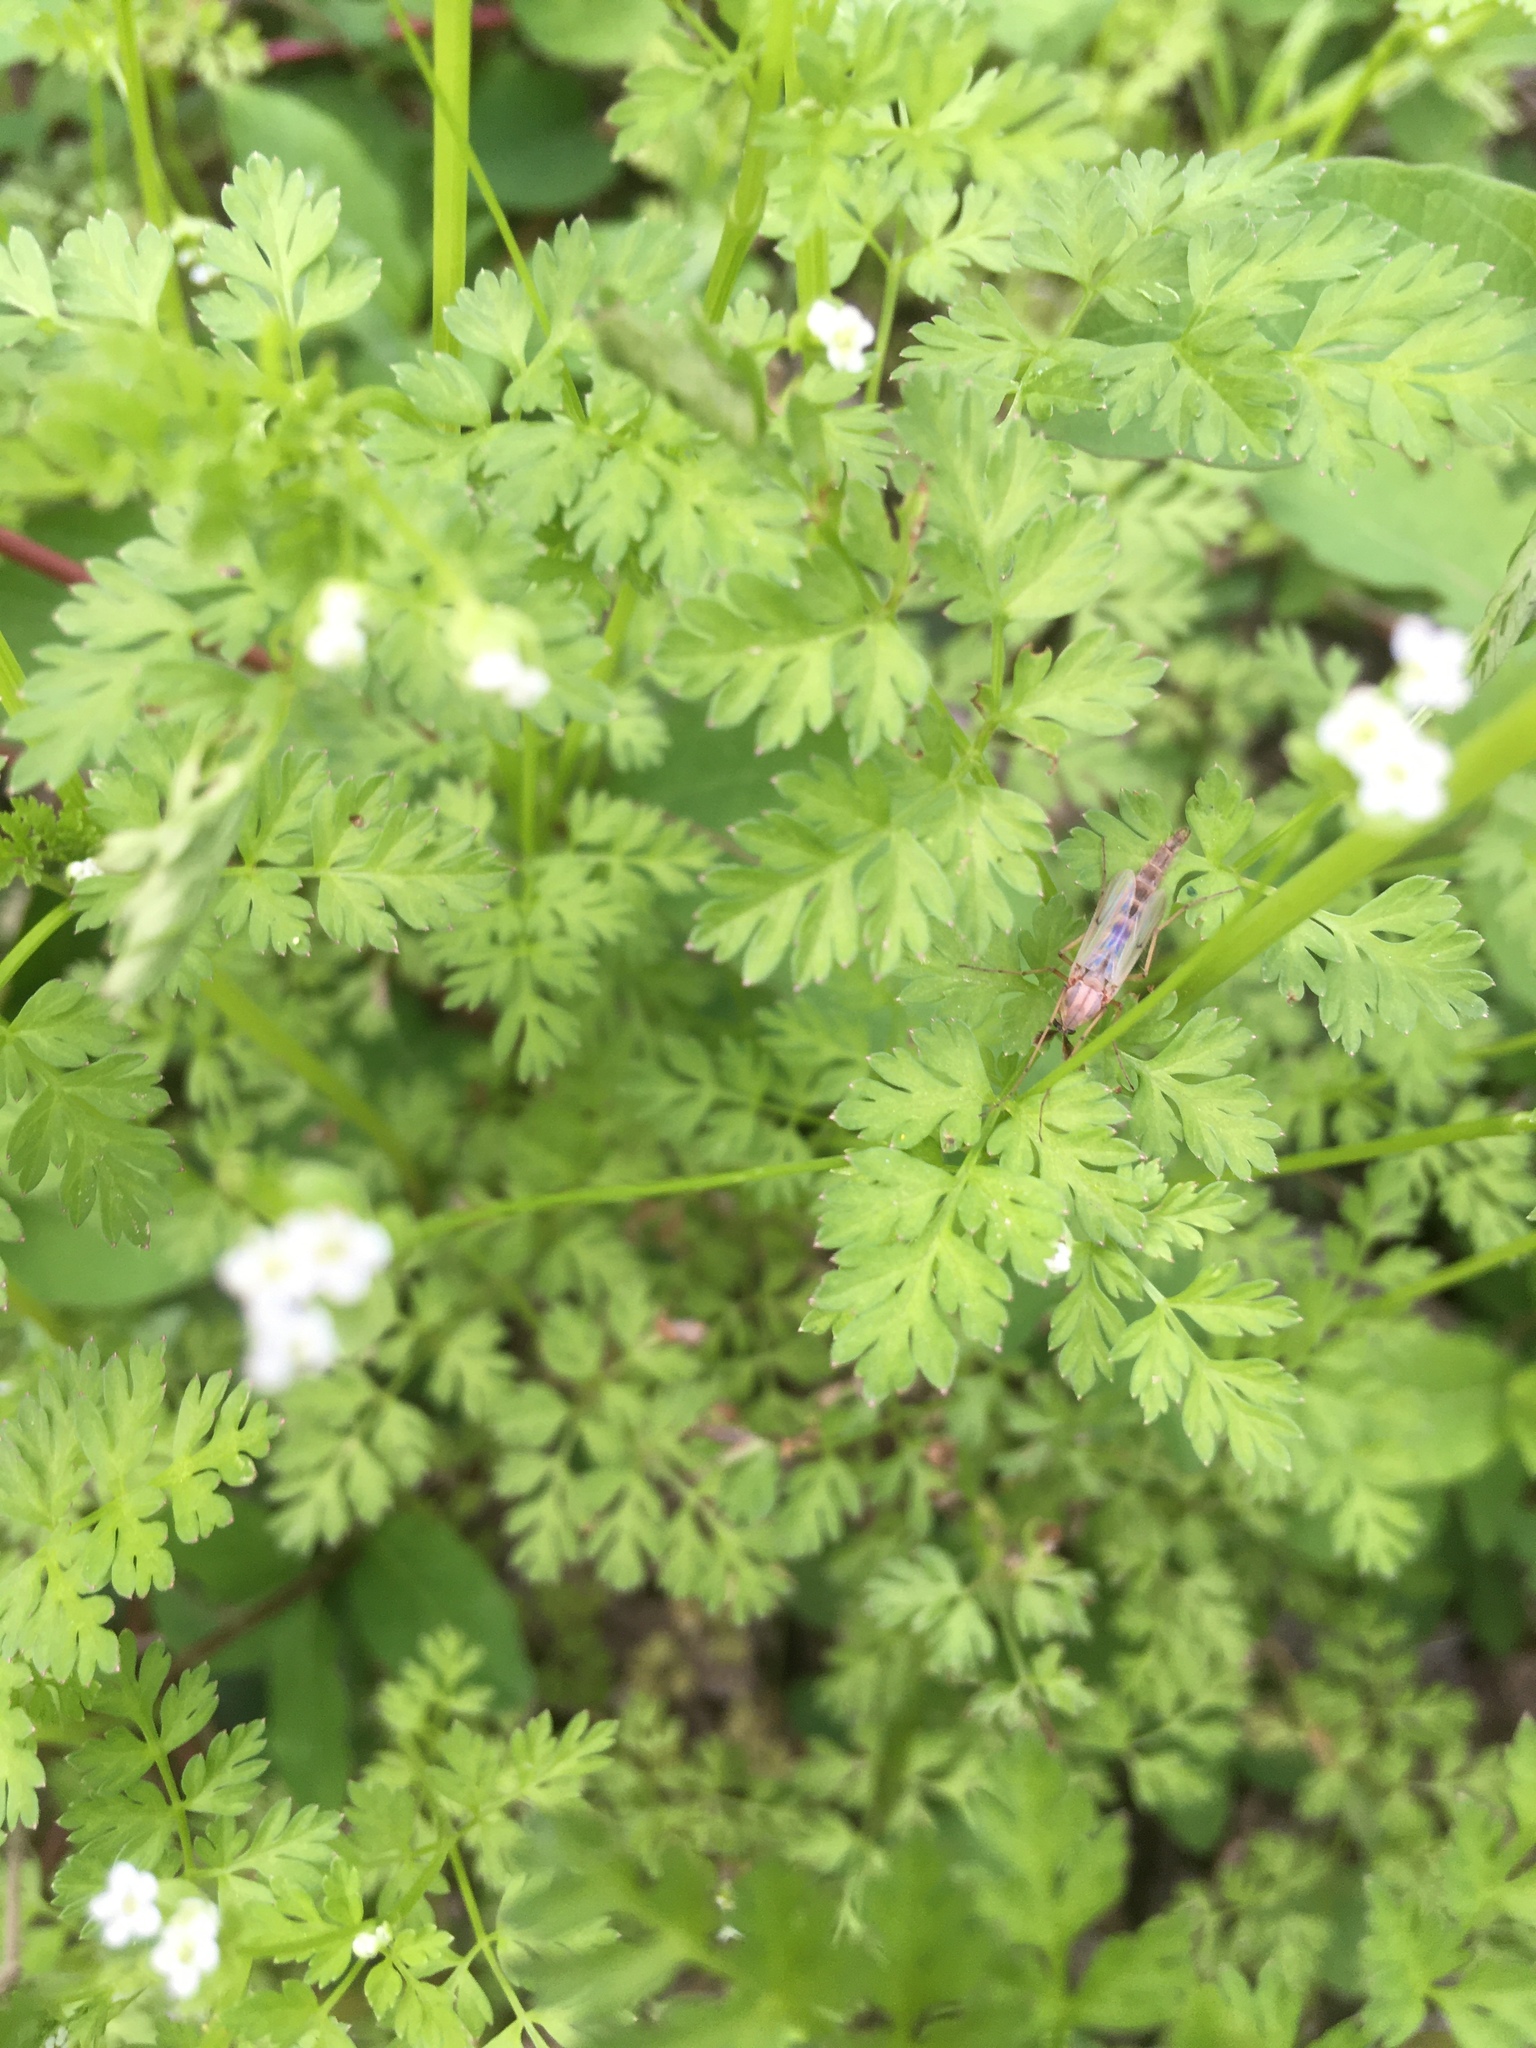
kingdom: Plantae
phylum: Tracheophyta
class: Magnoliopsida
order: Apiales
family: Apiaceae
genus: Chaerophyllum
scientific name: Chaerophyllum tainturieri
